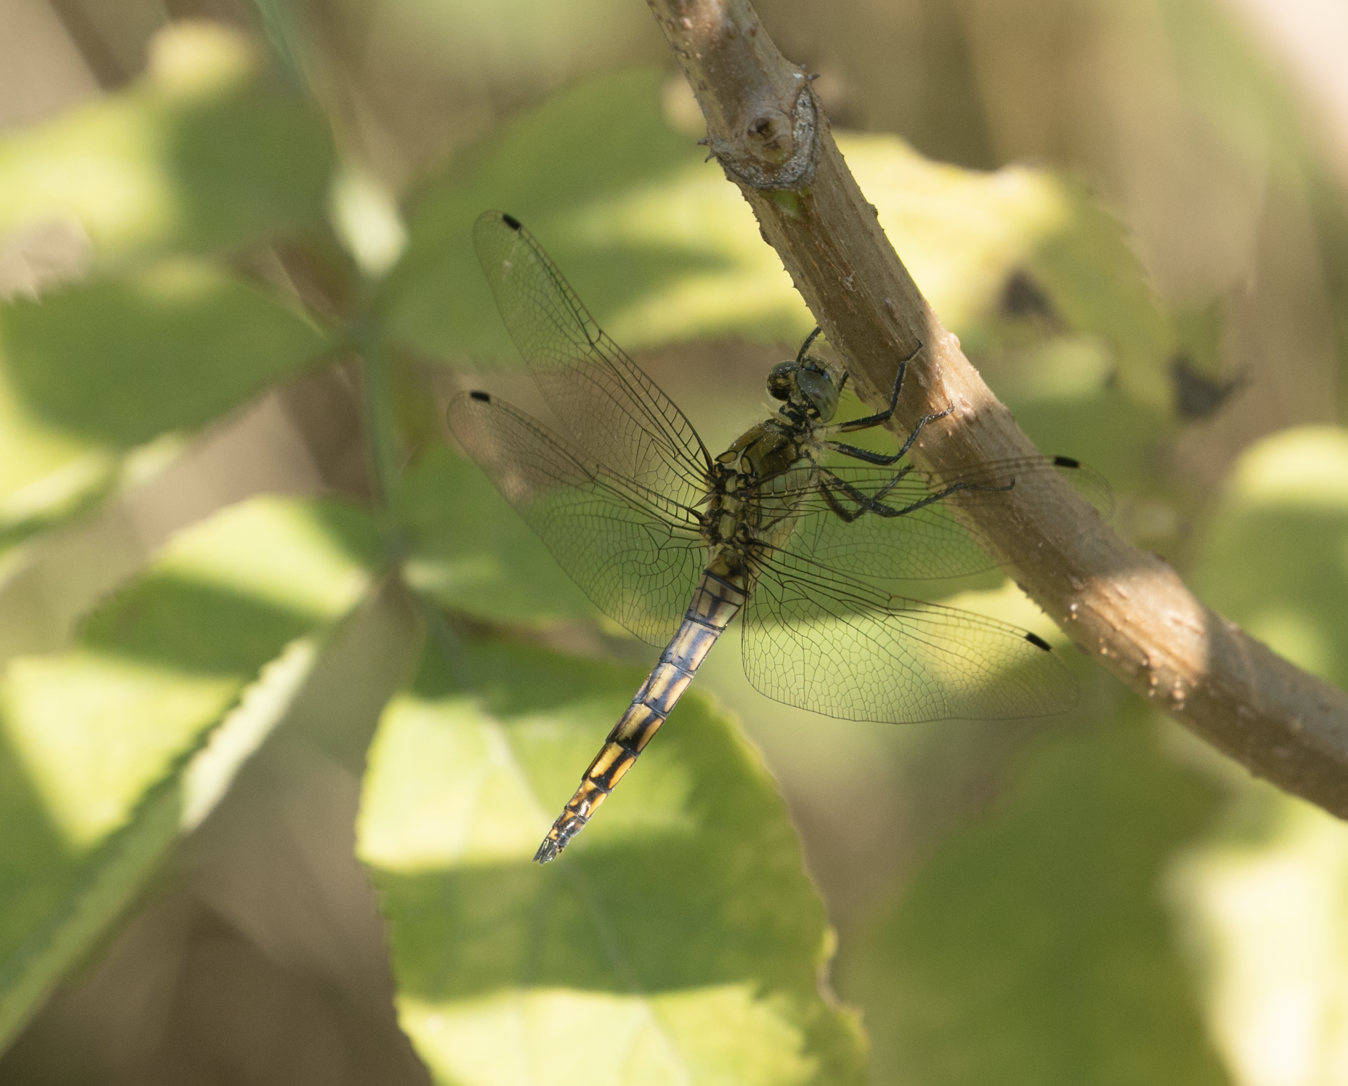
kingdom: Animalia
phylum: Arthropoda
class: Insecta
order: Odonata
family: Libellulidae
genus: Orthetrum
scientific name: Orthetrum cancellatum
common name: Black-tailed skimmer
